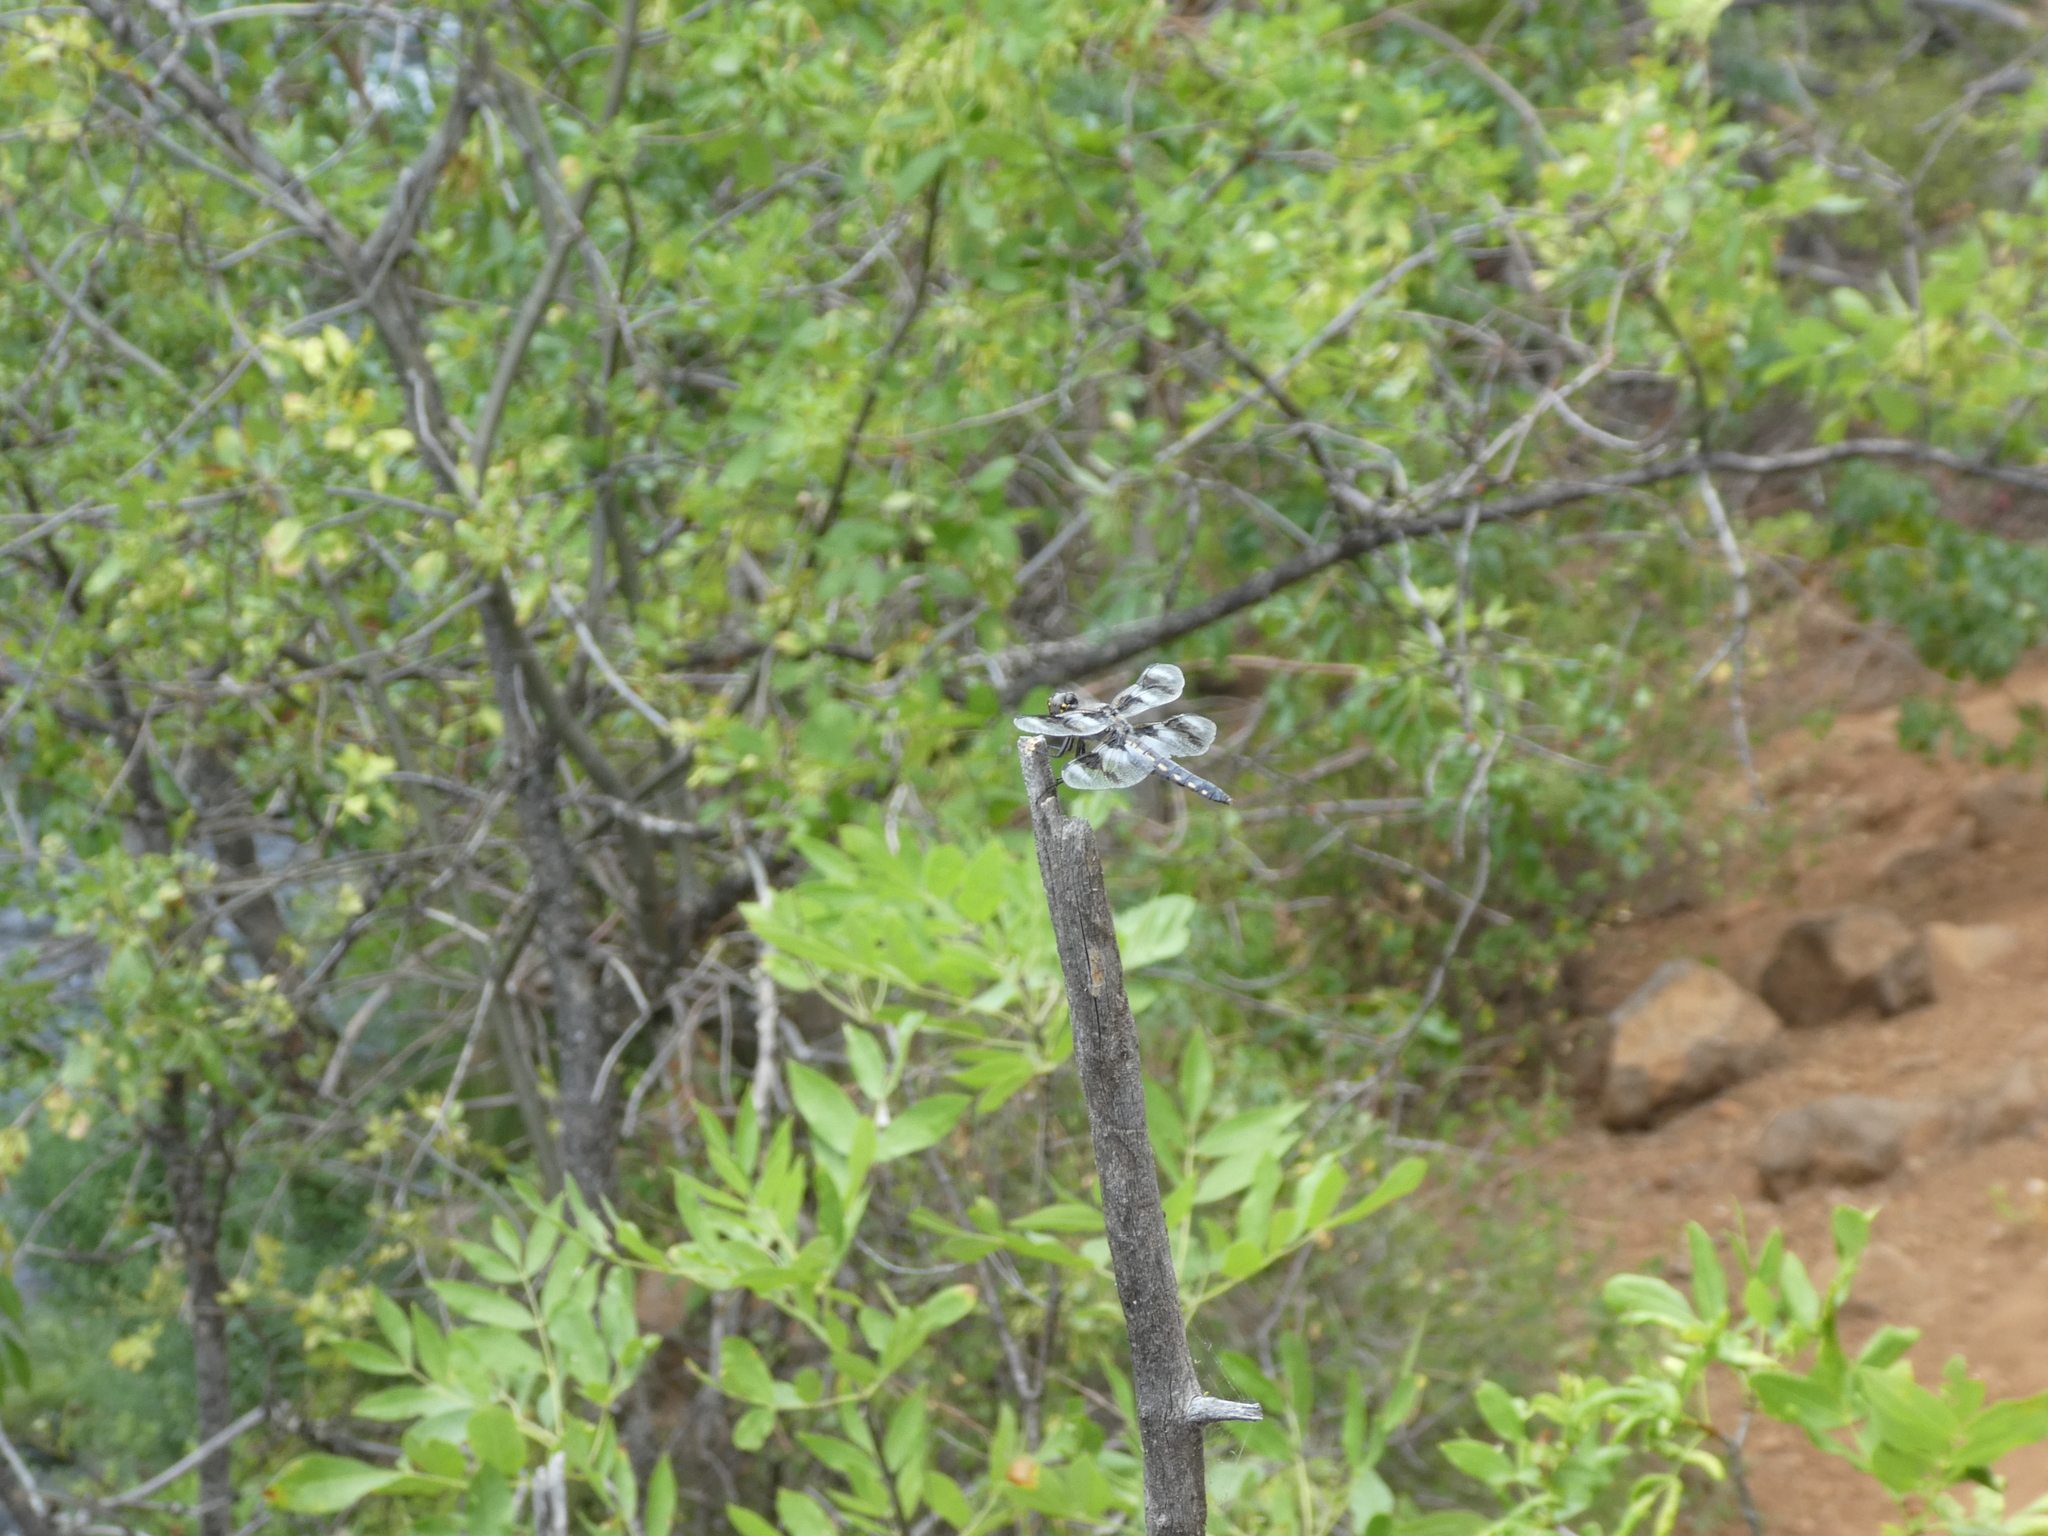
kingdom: Animalia
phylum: Arthropoda
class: Insecta
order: Odonata
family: Libellulidae
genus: Libellula
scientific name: Libellula forensis
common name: Eight-spotted skimmer
